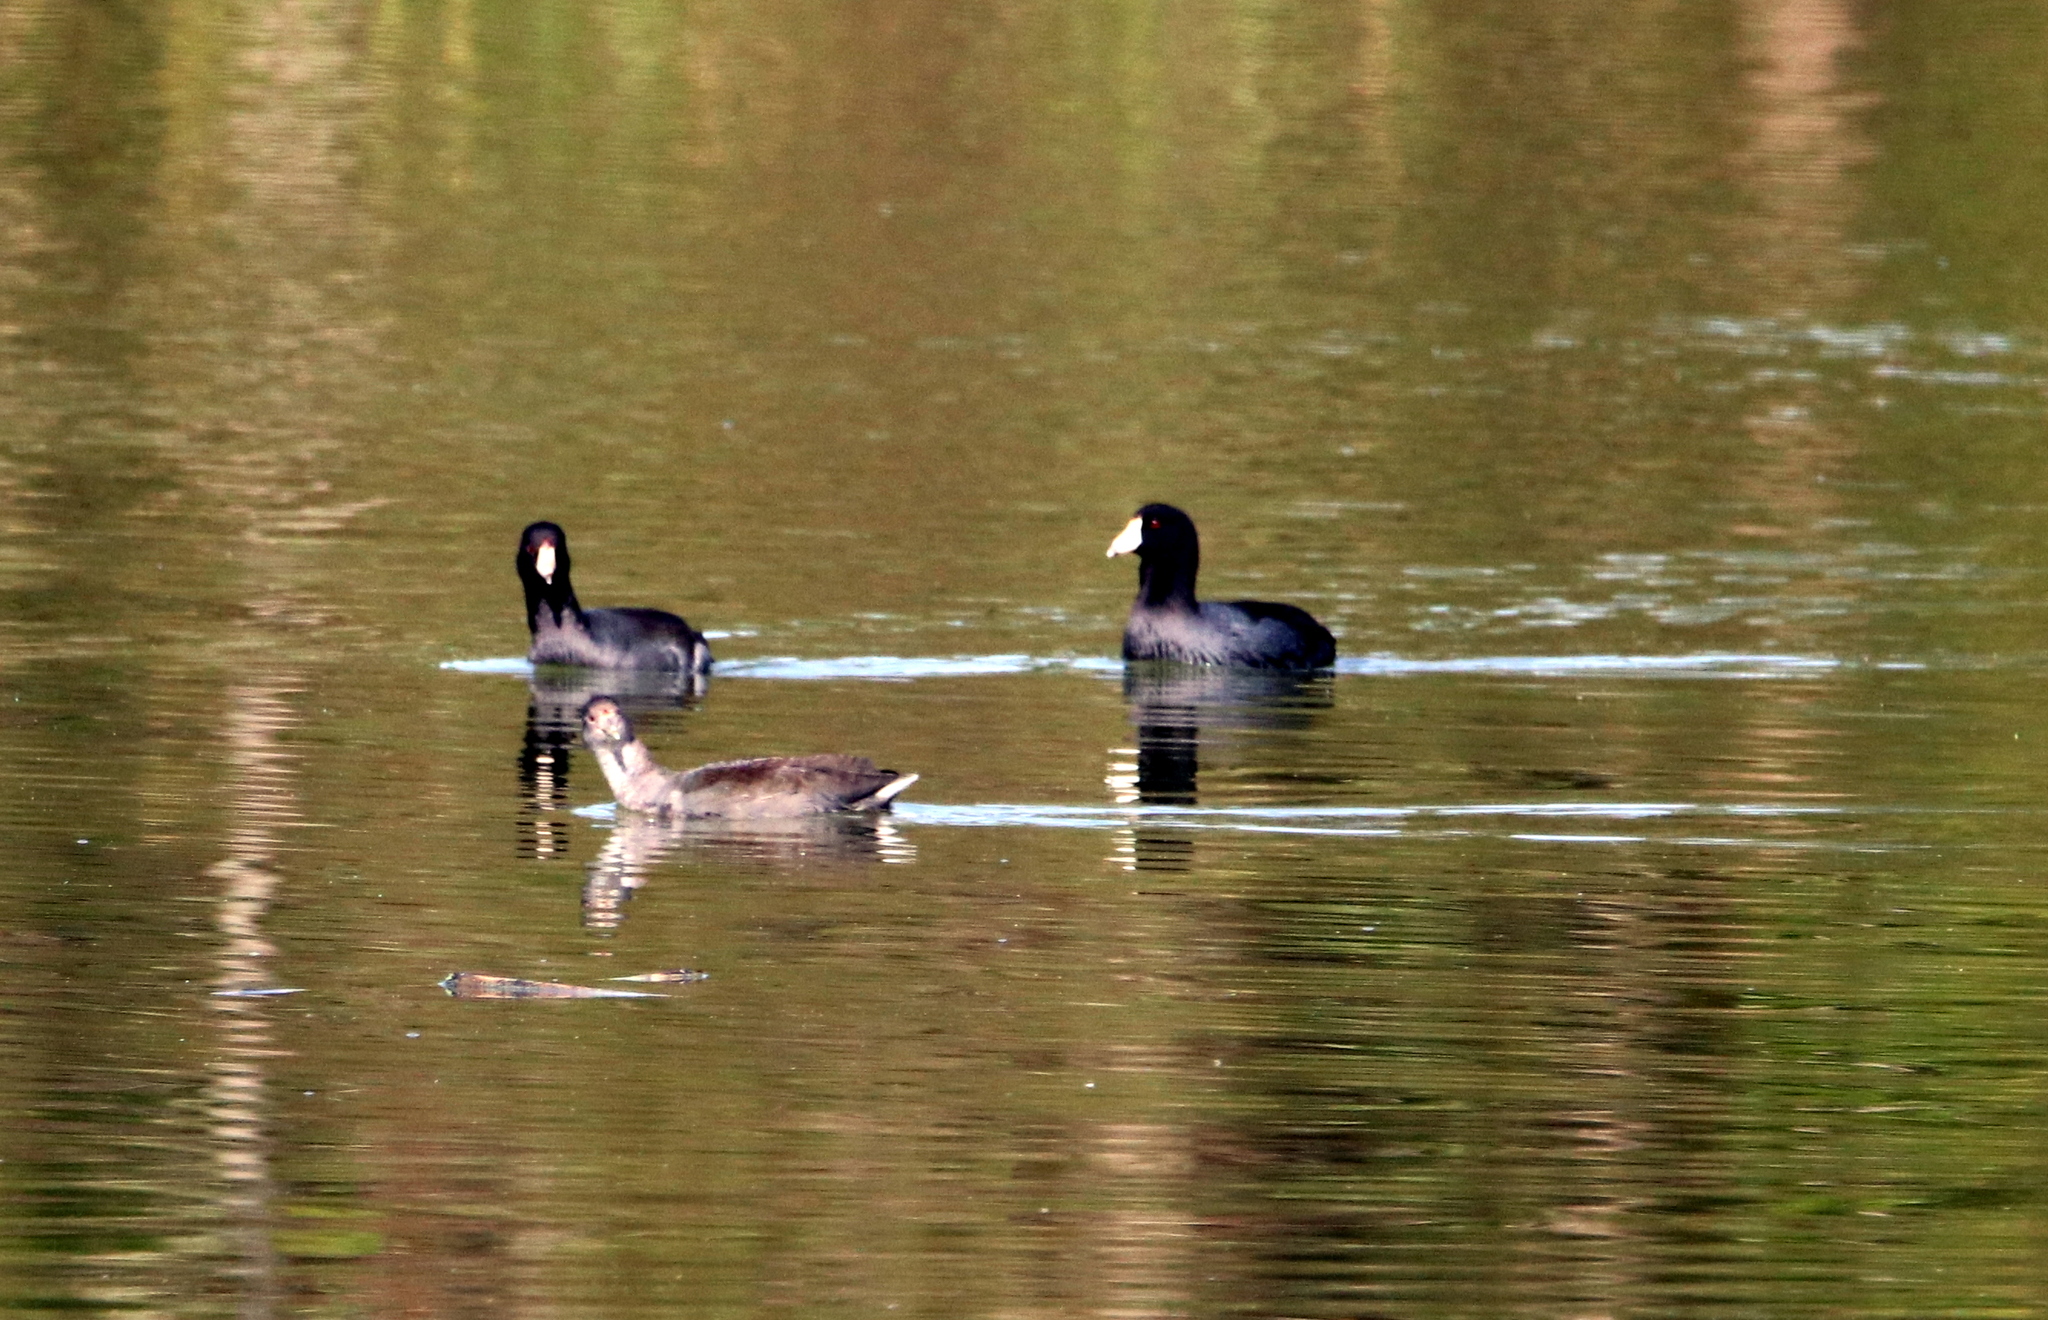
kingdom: Animalia
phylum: Chordata
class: Aves
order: Gruiformes
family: Rallidae
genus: Fulica
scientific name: Fulica americana
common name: American coot
